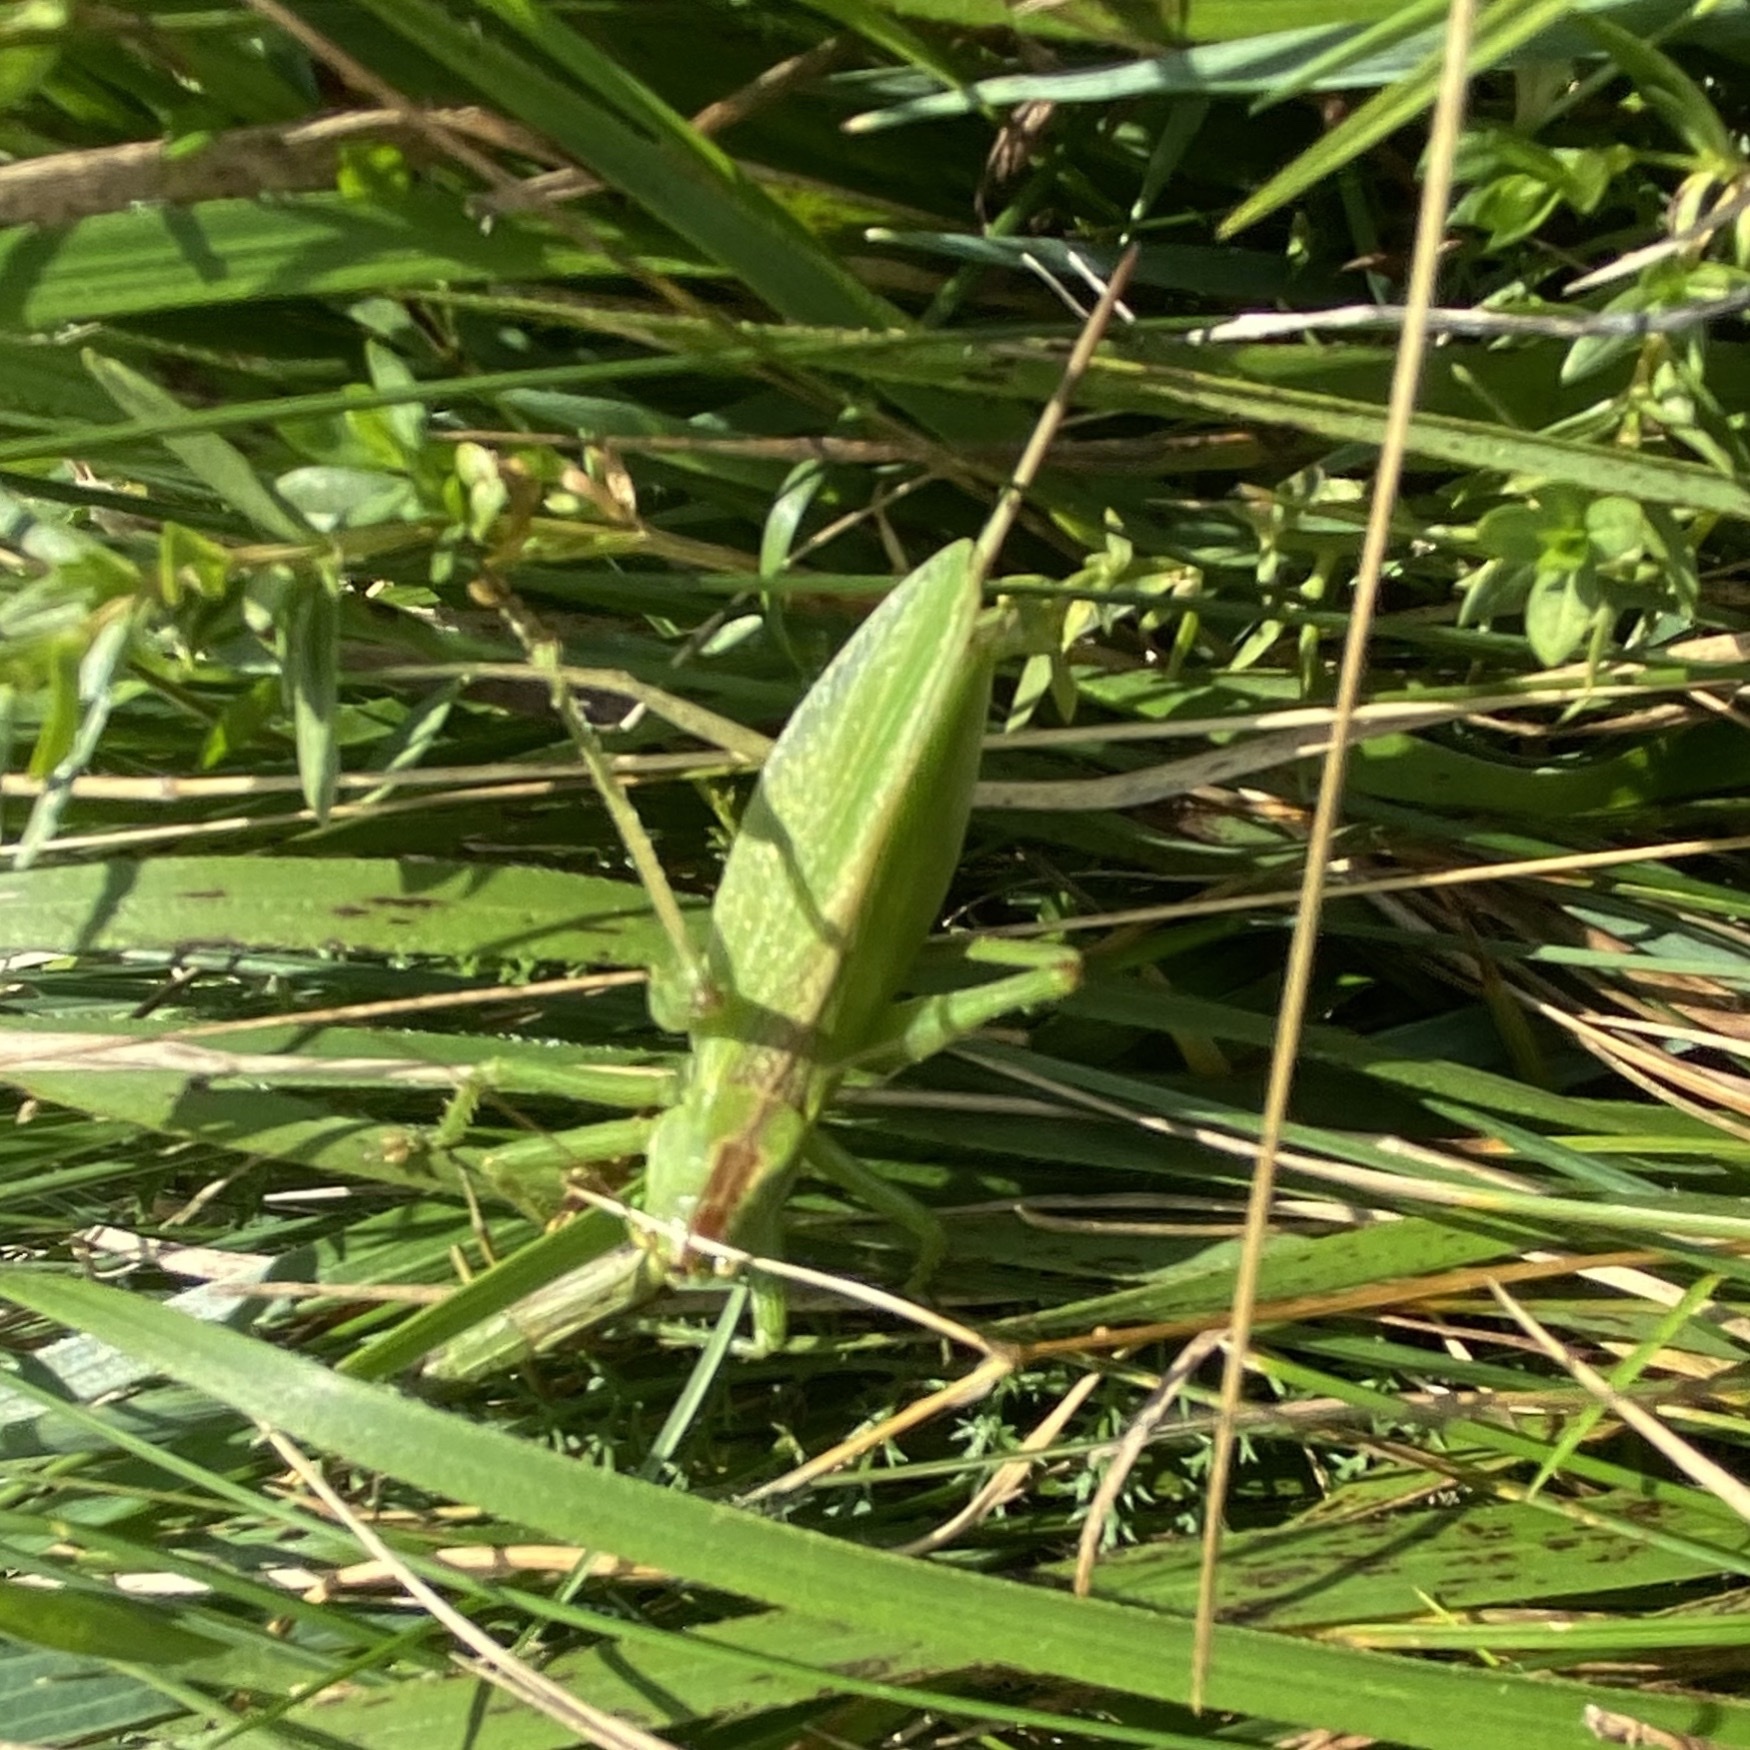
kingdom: Animalia
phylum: Arthropoda
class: Insecta
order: Orthoptera
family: Tettigoniidae
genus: Tettigonia
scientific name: Tettigonia cantans
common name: Upland green bush-cricket
